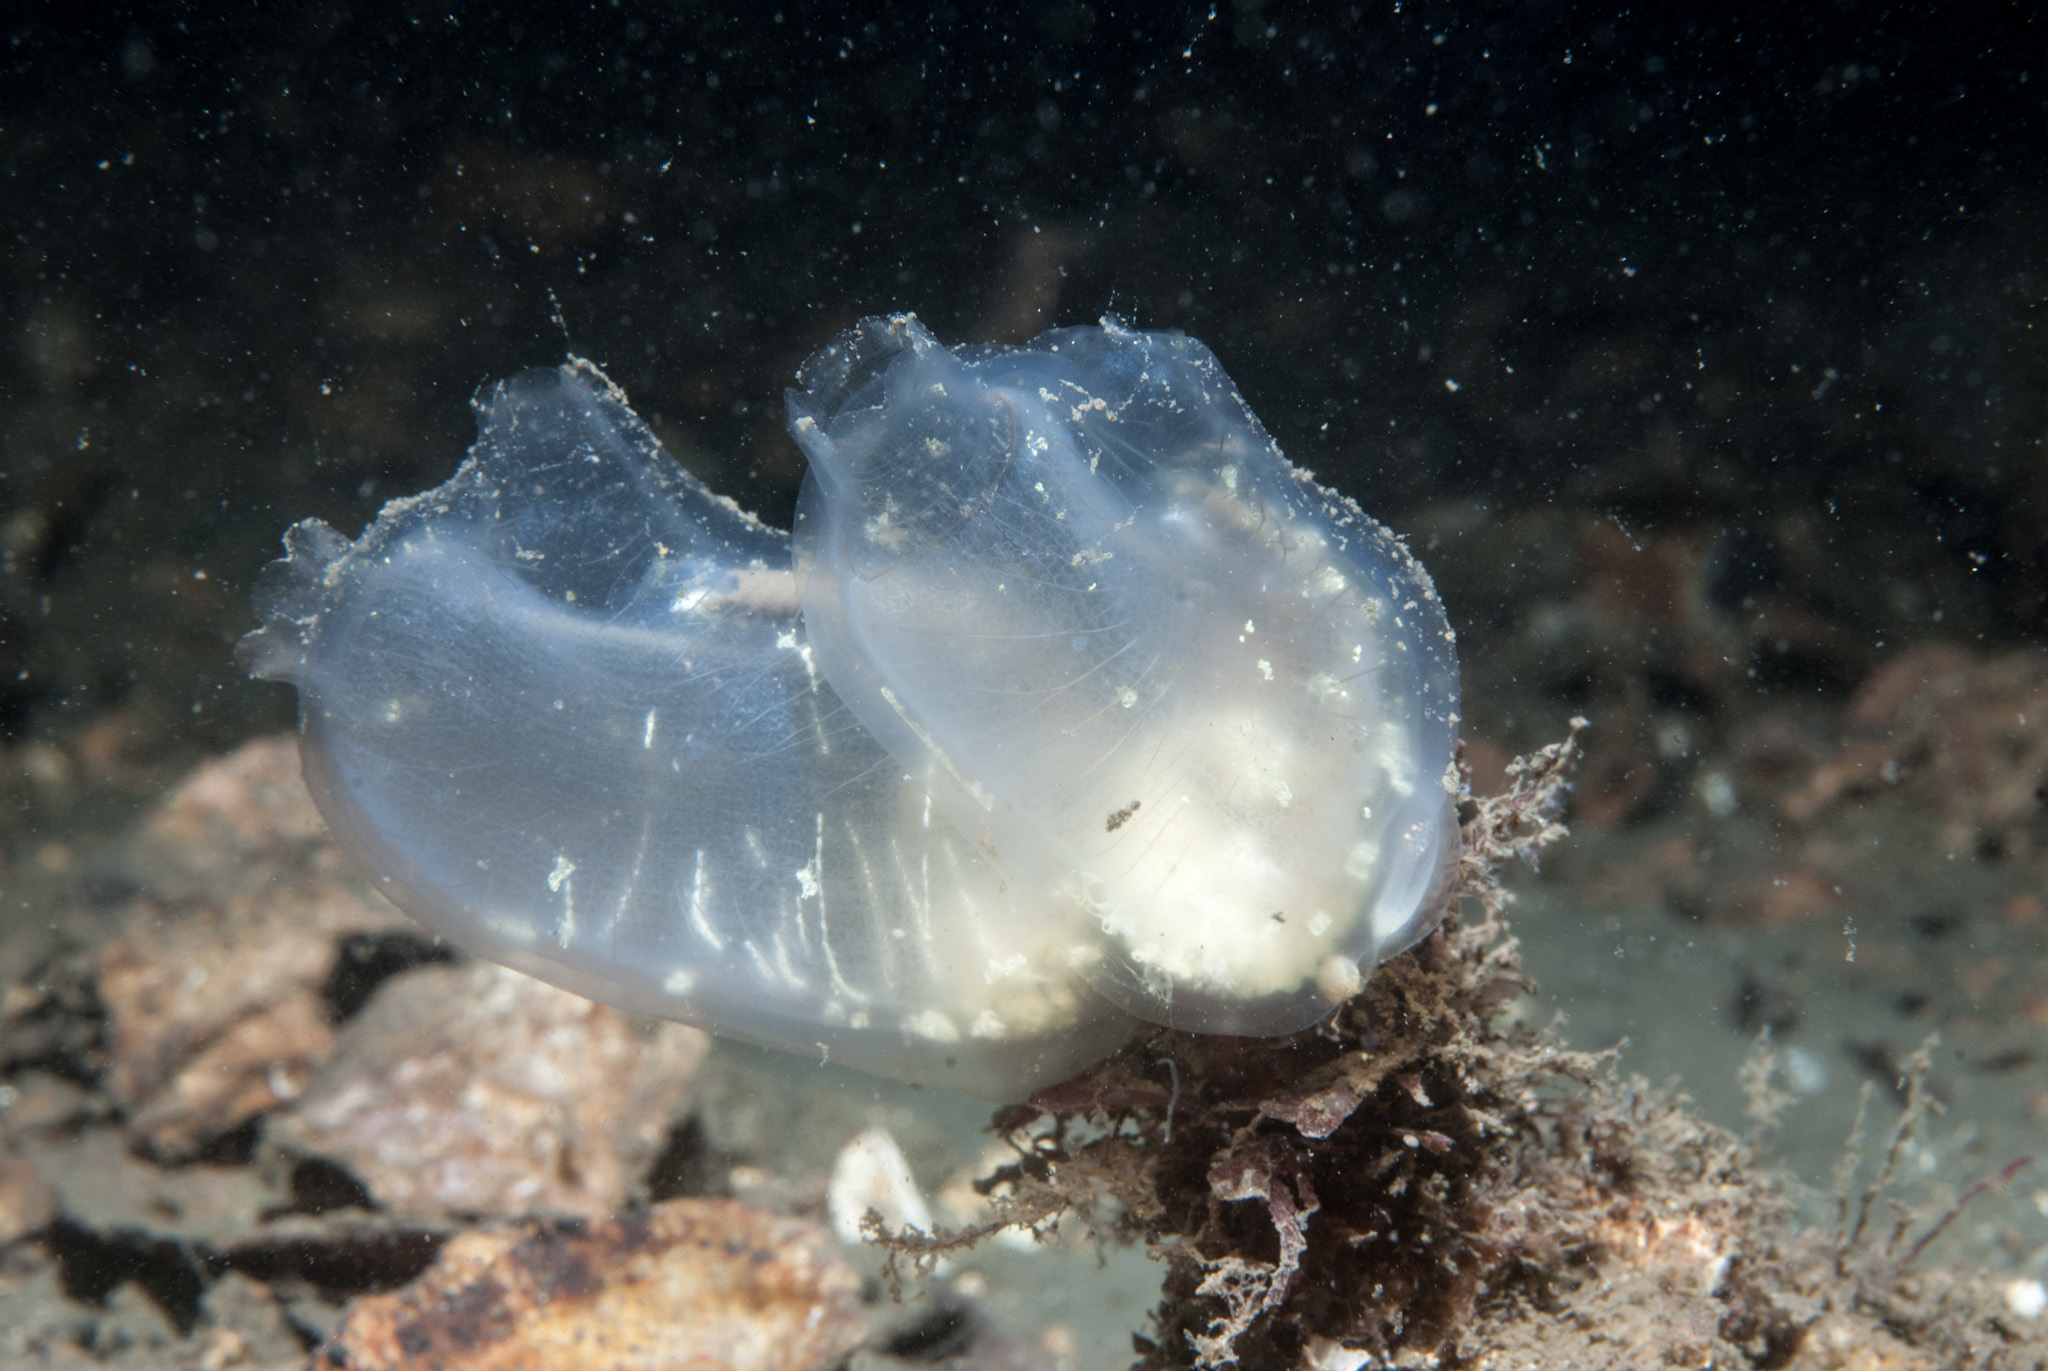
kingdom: Animalia
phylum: Chordata
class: Ascidiacea
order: Phlebobranchia
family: Corellidae
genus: Corella
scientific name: Corella parallelogramma
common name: Gas mantle ascidian
